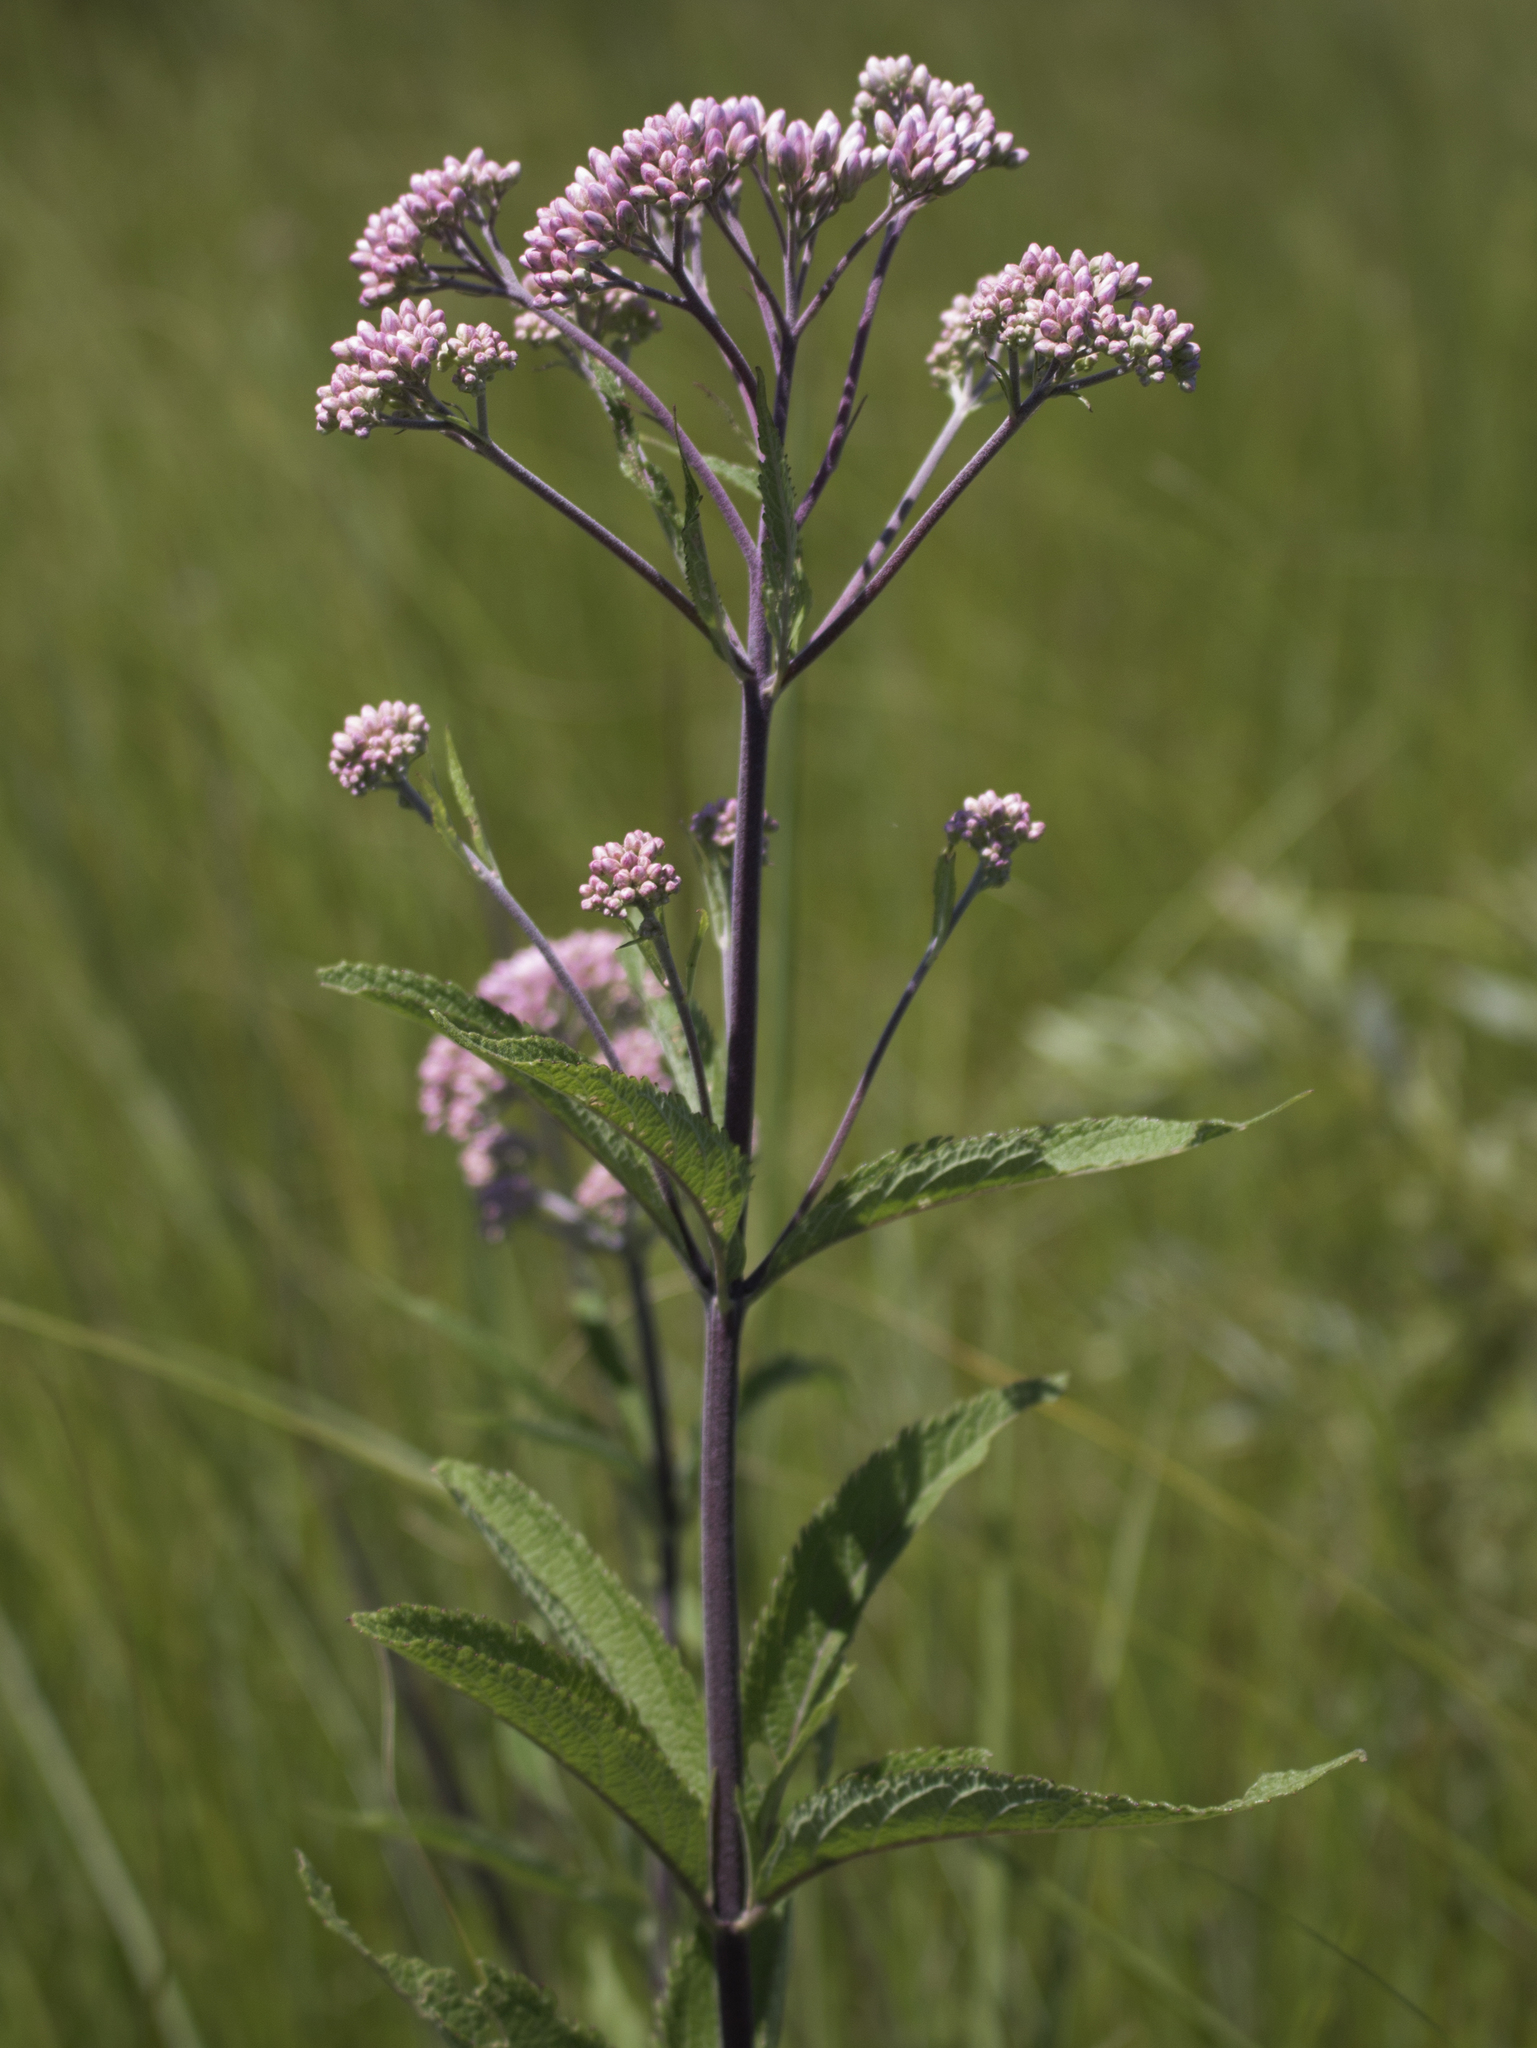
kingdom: Plantae
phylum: Tracheophyta
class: Magnoliopsida
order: Asterales
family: Asteraceae
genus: Eutrochium
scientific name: Eutrochium maculatum
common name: Spotted joe pye weed
